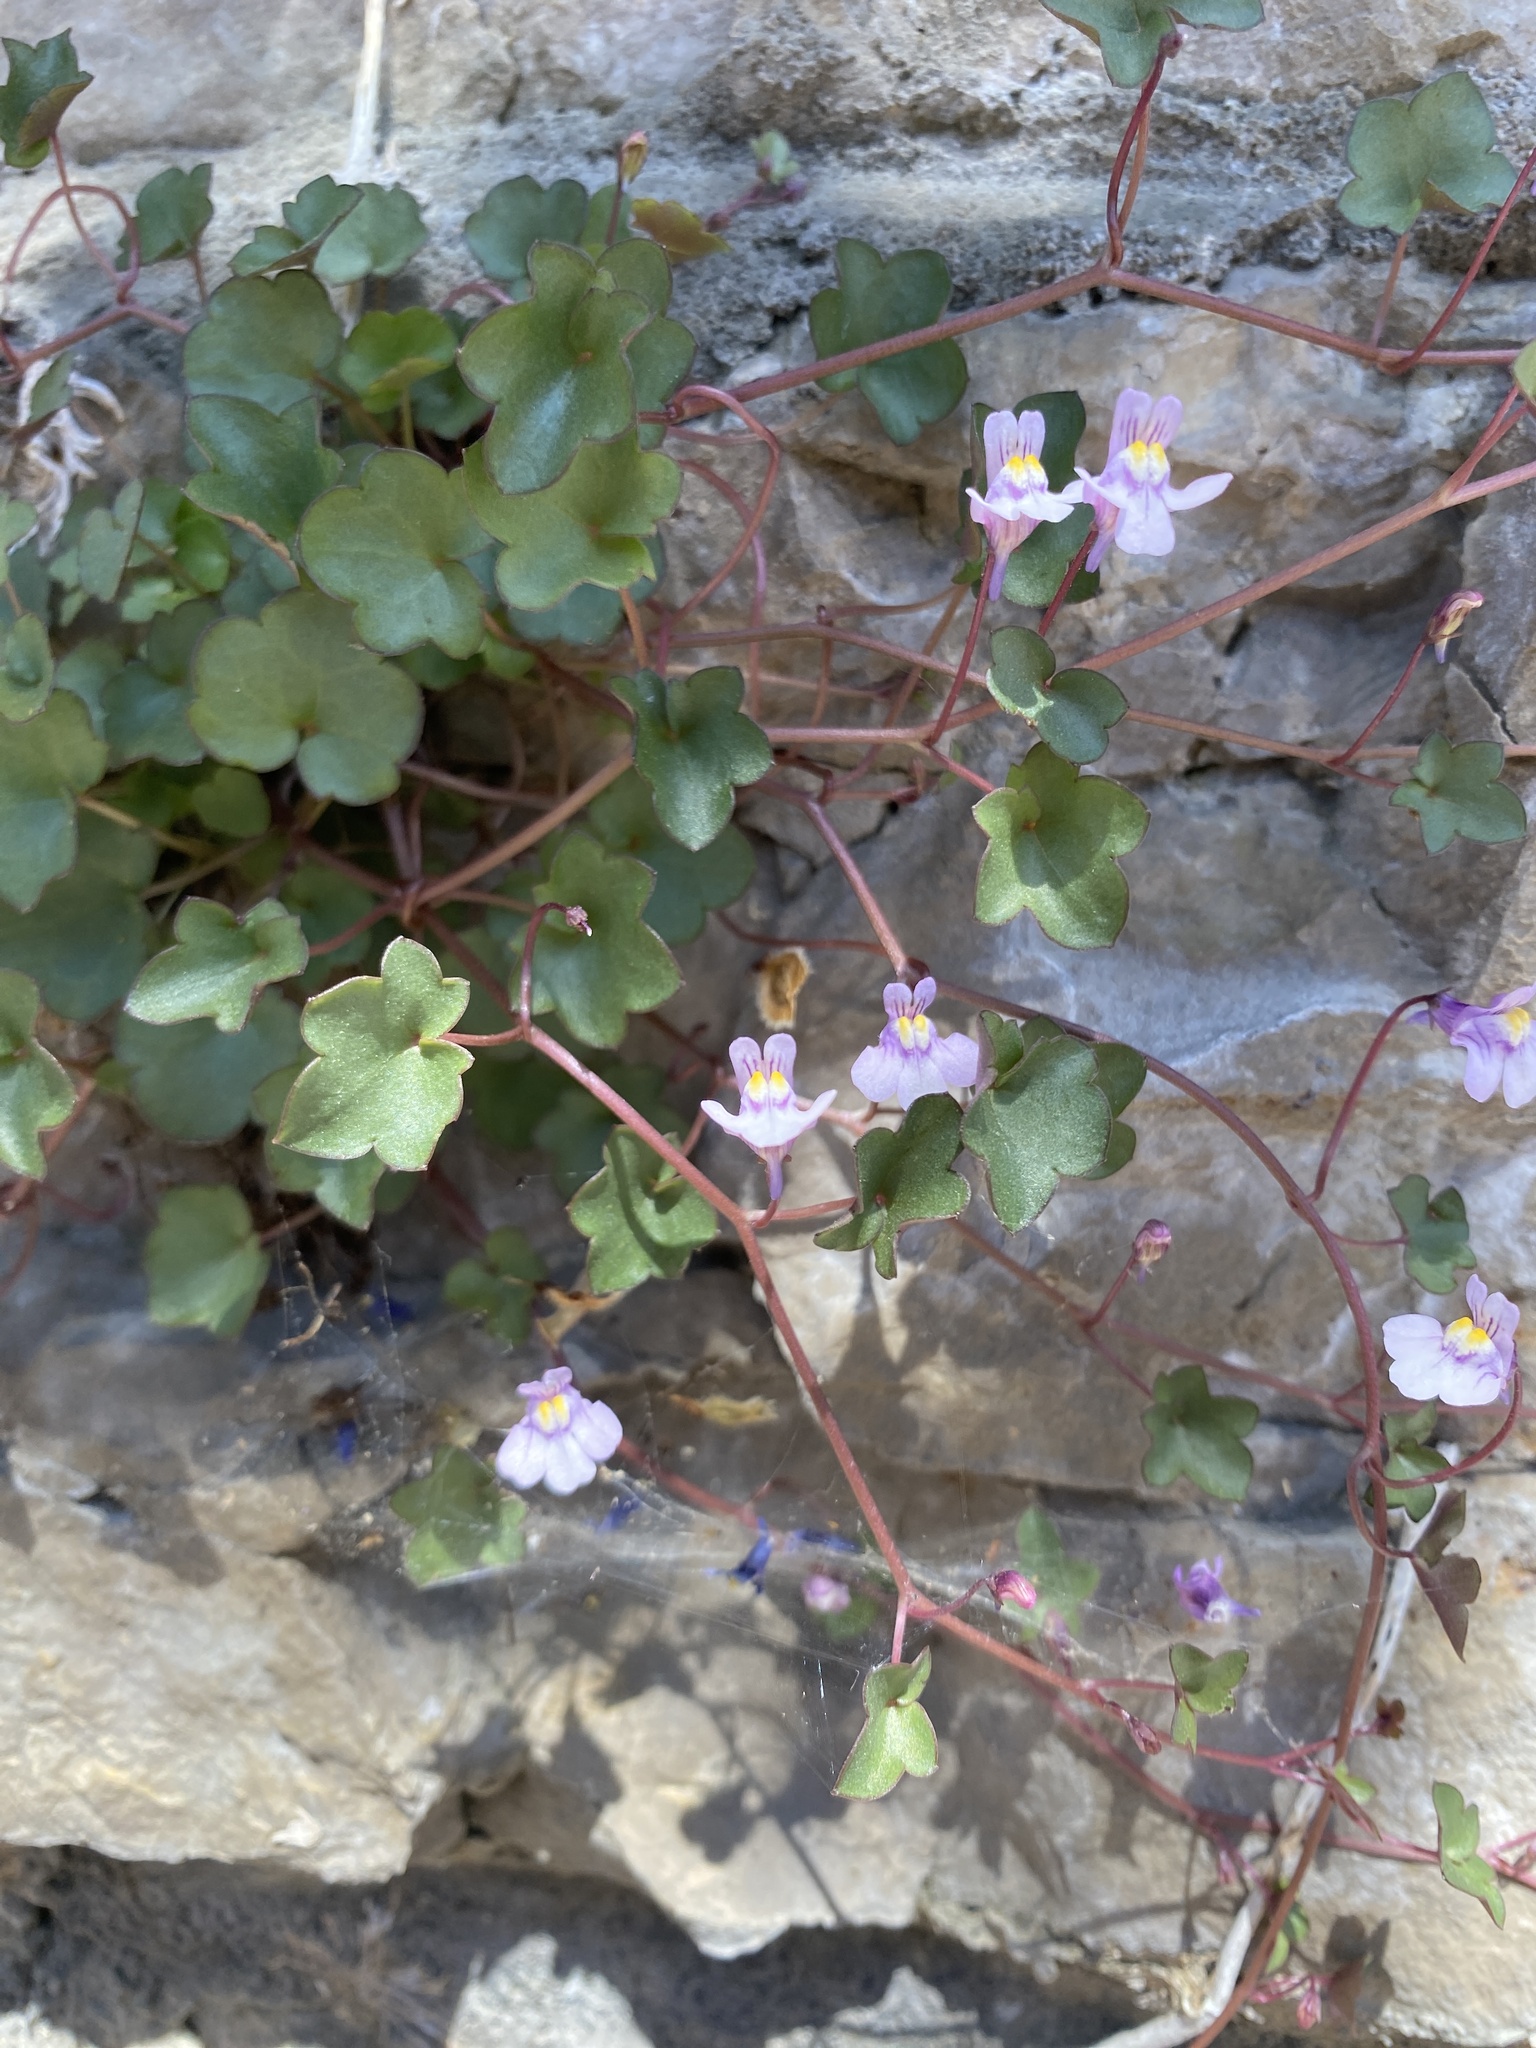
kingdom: Plantae
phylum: Tracheophyta
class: Magnoliopsida
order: Lamiales
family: Plantaginaceae
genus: Cymbalaria
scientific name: Cymbalaria muralis
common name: Ivy-leaved toadflax
